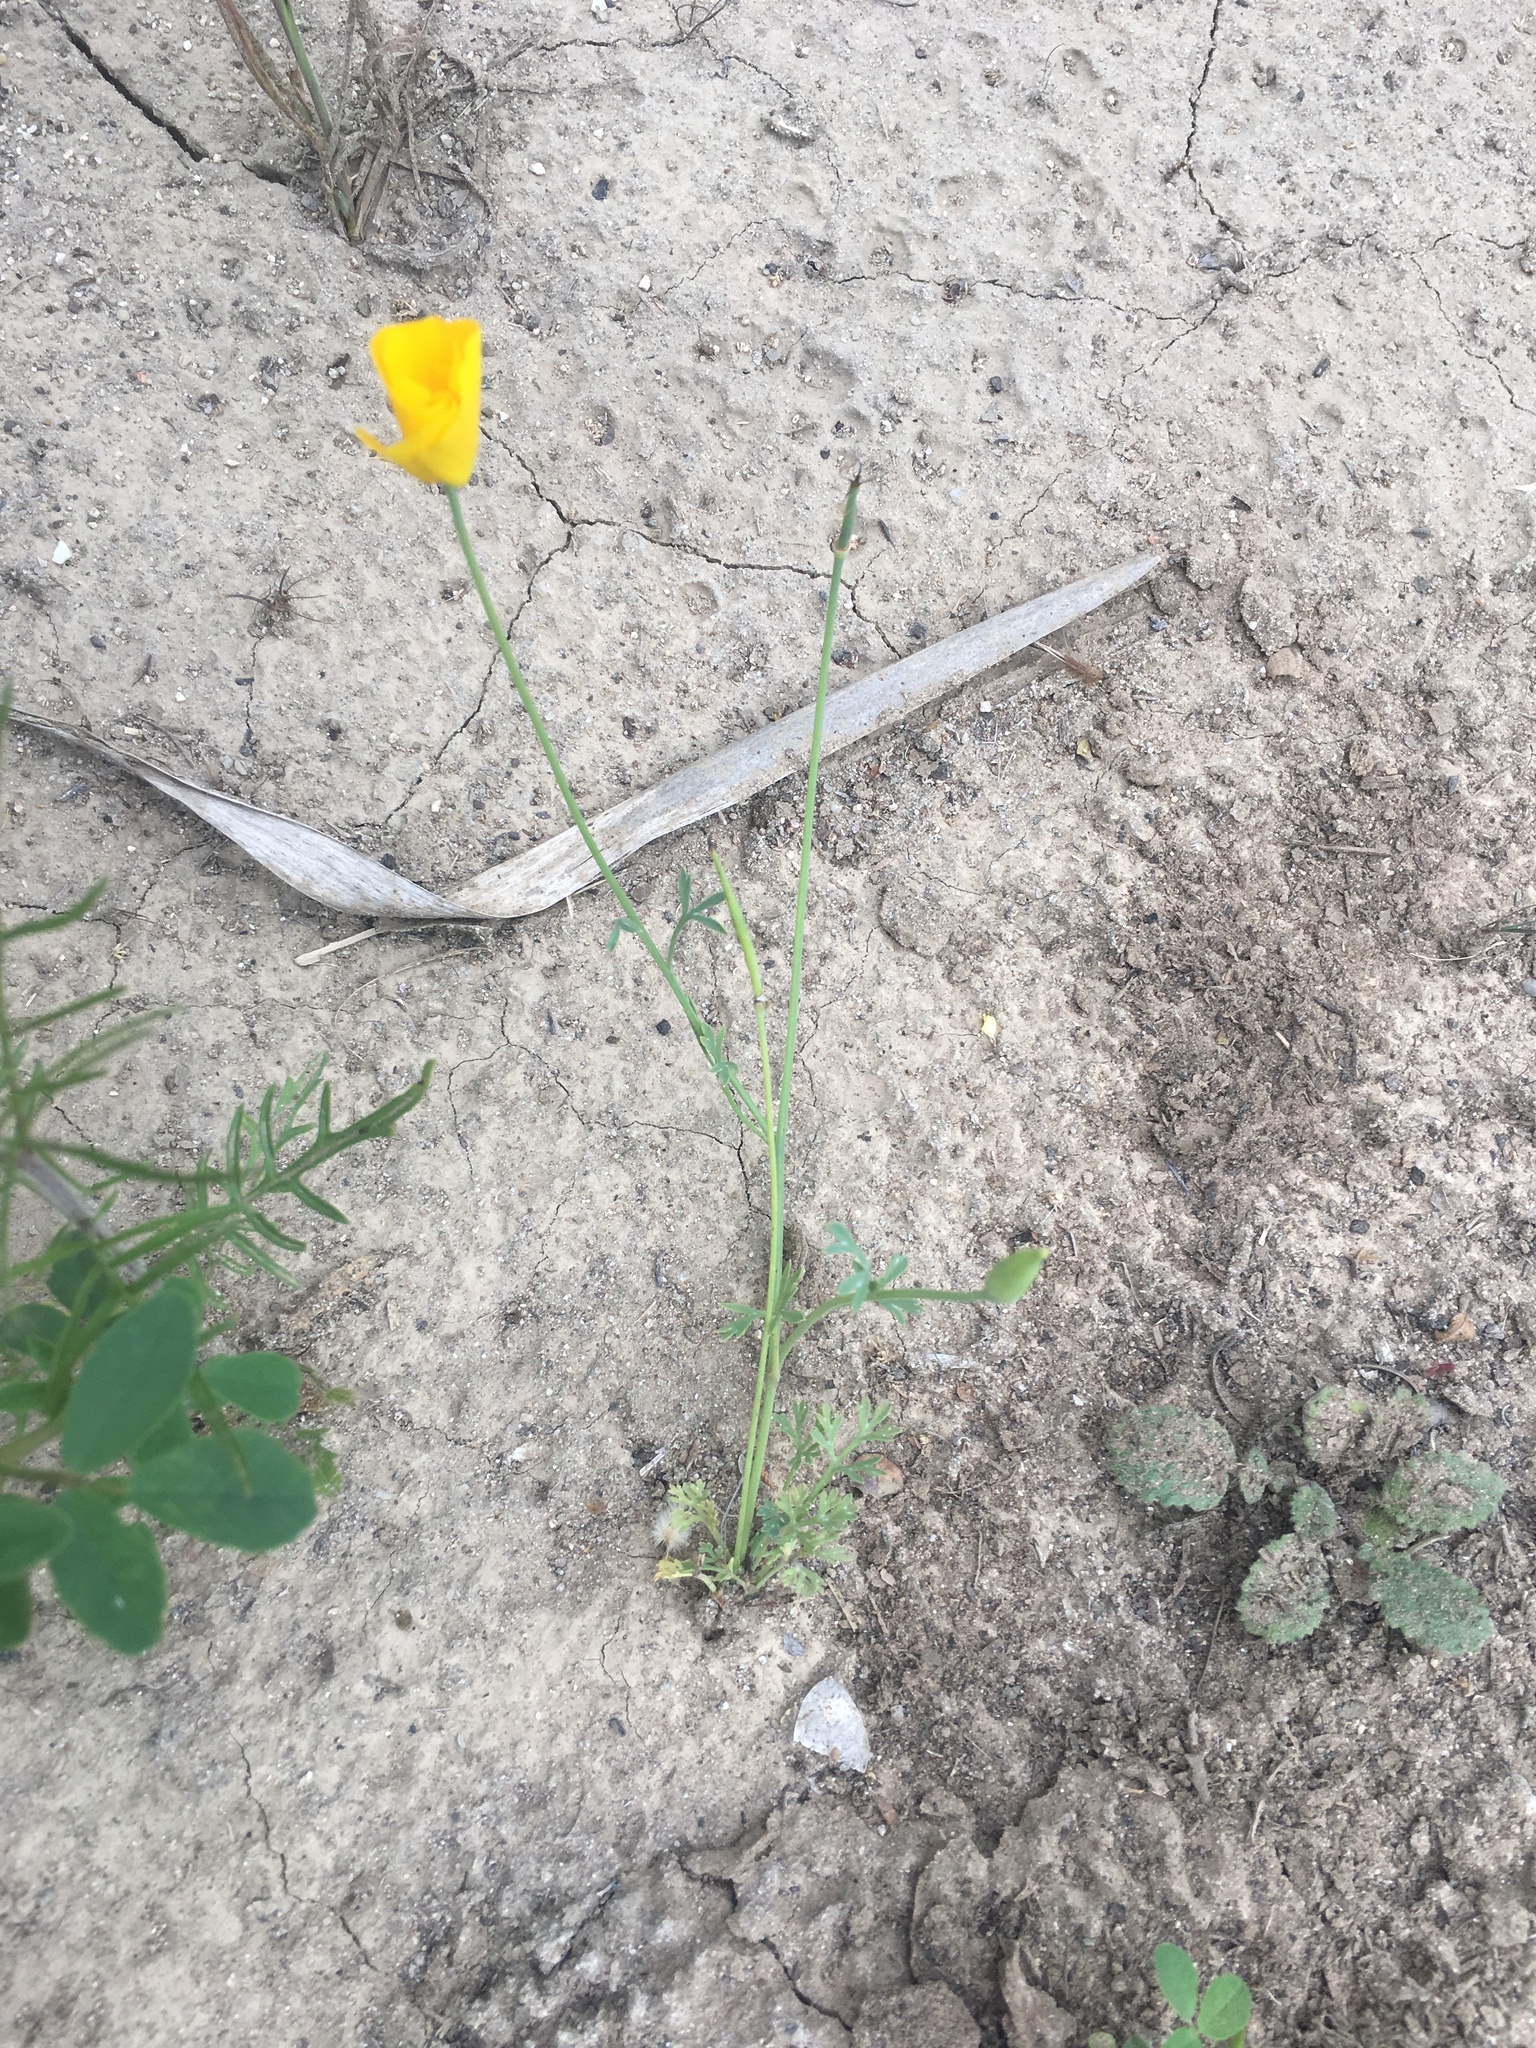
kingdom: Plantae
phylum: Tracheophyta
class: Magnoliopsida
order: Ranunculales
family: Papaveraceae
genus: Eschscholzia
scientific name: Eschscholzia caespitosa
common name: Tufted california-poppy
